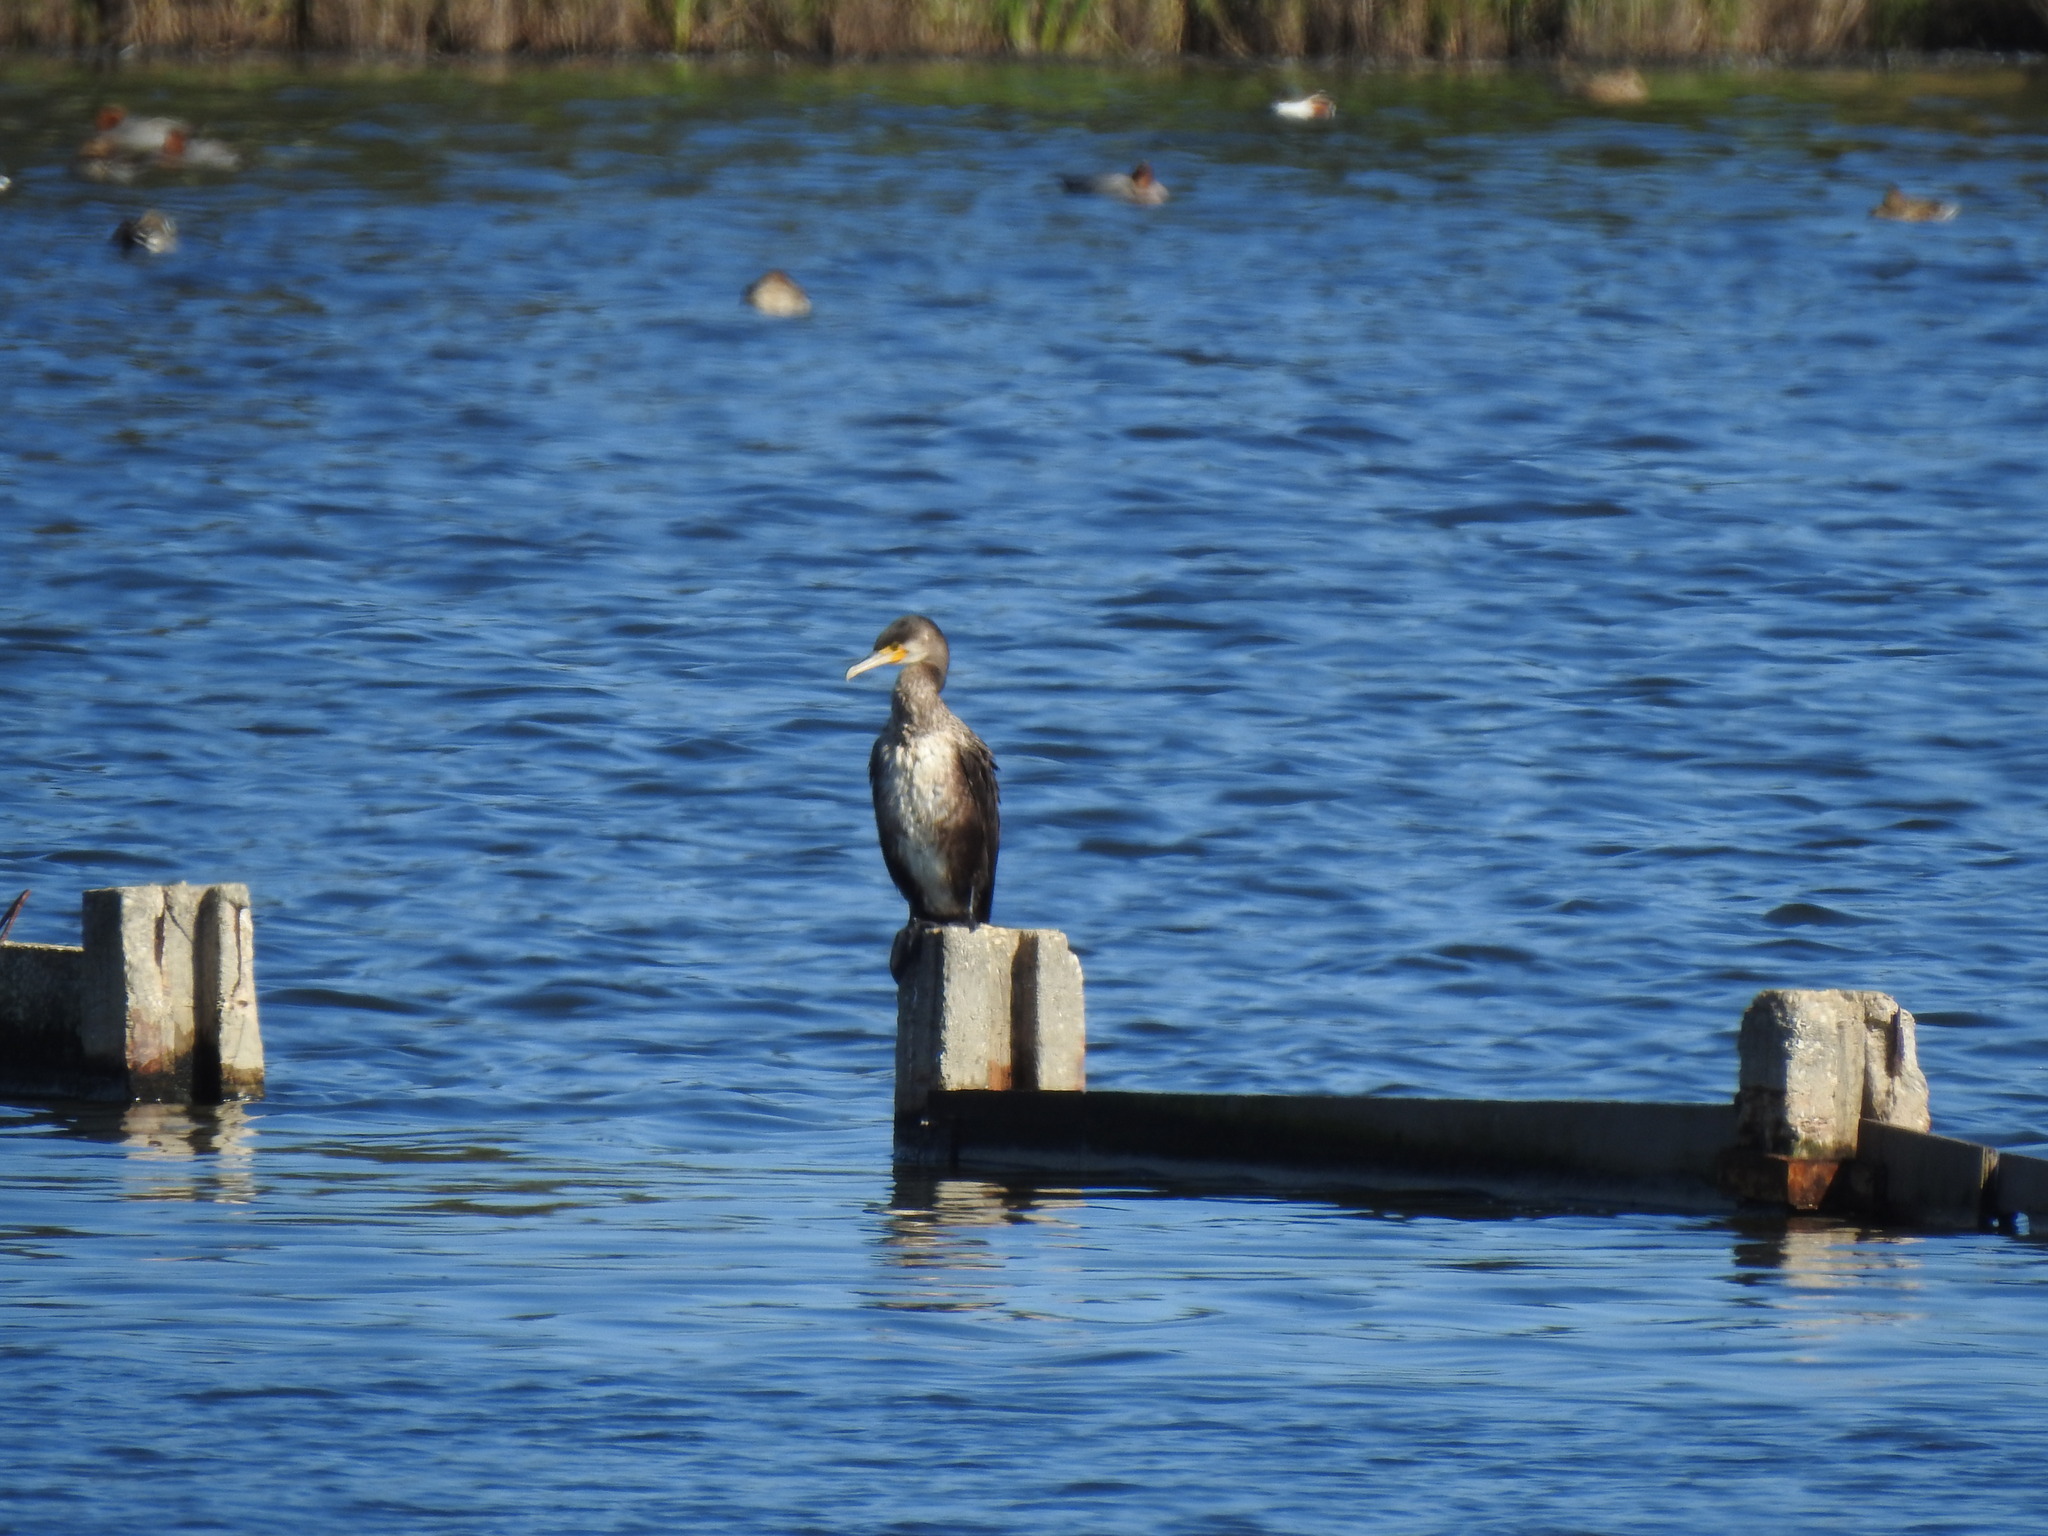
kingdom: Animalia
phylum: Chordata
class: Aves
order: Suliformes
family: Phalacrocoracidae
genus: Phalacrocorax
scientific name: Phalacrocorax carbo
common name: Great cormorant
